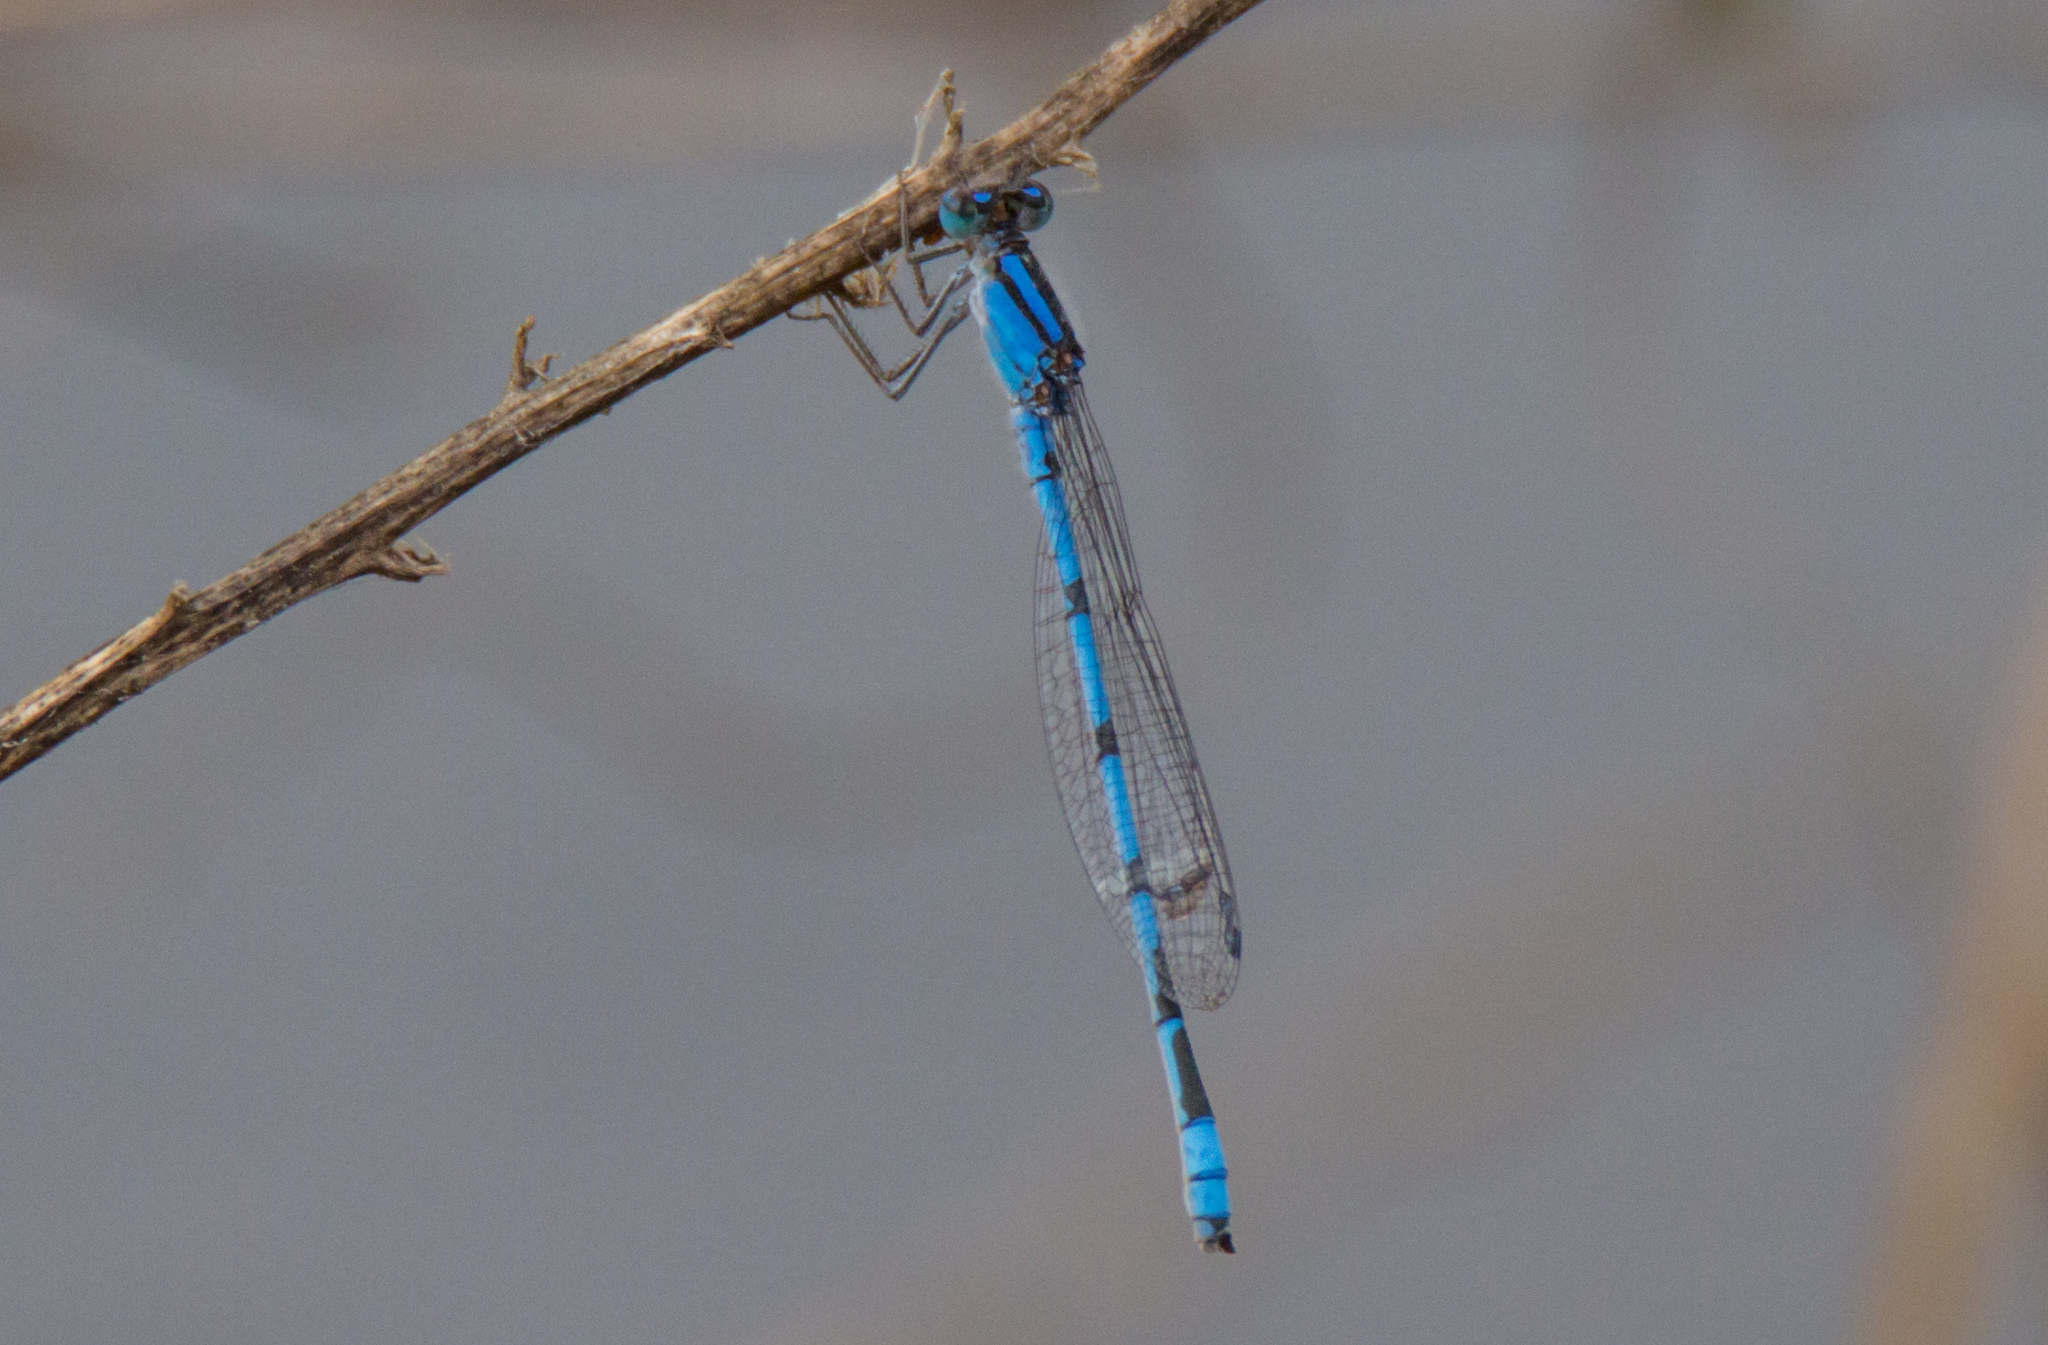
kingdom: Animalia
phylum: Arthropoda
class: Insecta
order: Odonata
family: Coenagrionidae
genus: Enallagma
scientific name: Enallagma civile
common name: Damselfly
